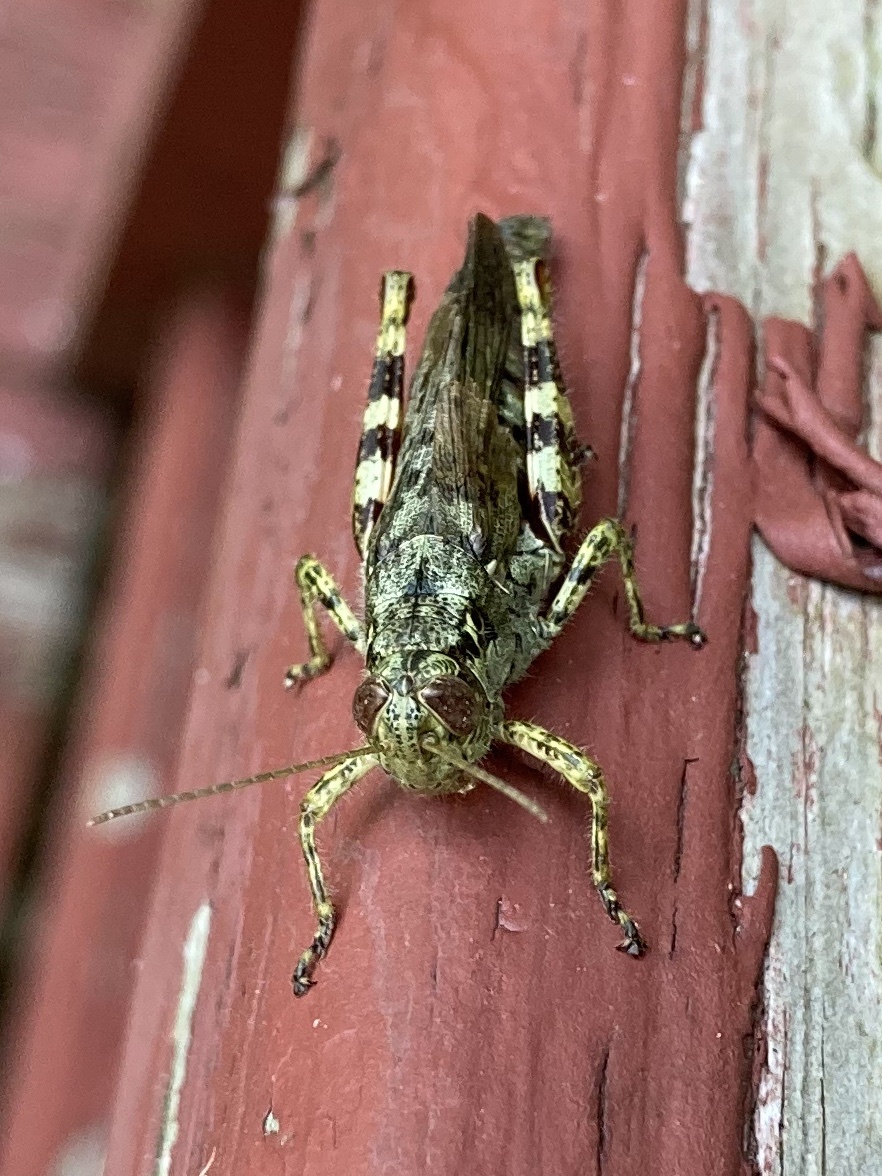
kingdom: Animalia
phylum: Arthropoda
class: Insecta
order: Orthoptera
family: Acrididae
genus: Melanoplus
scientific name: Melanoplus punctulatus
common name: Pine-tree spur-throat grasshopper
